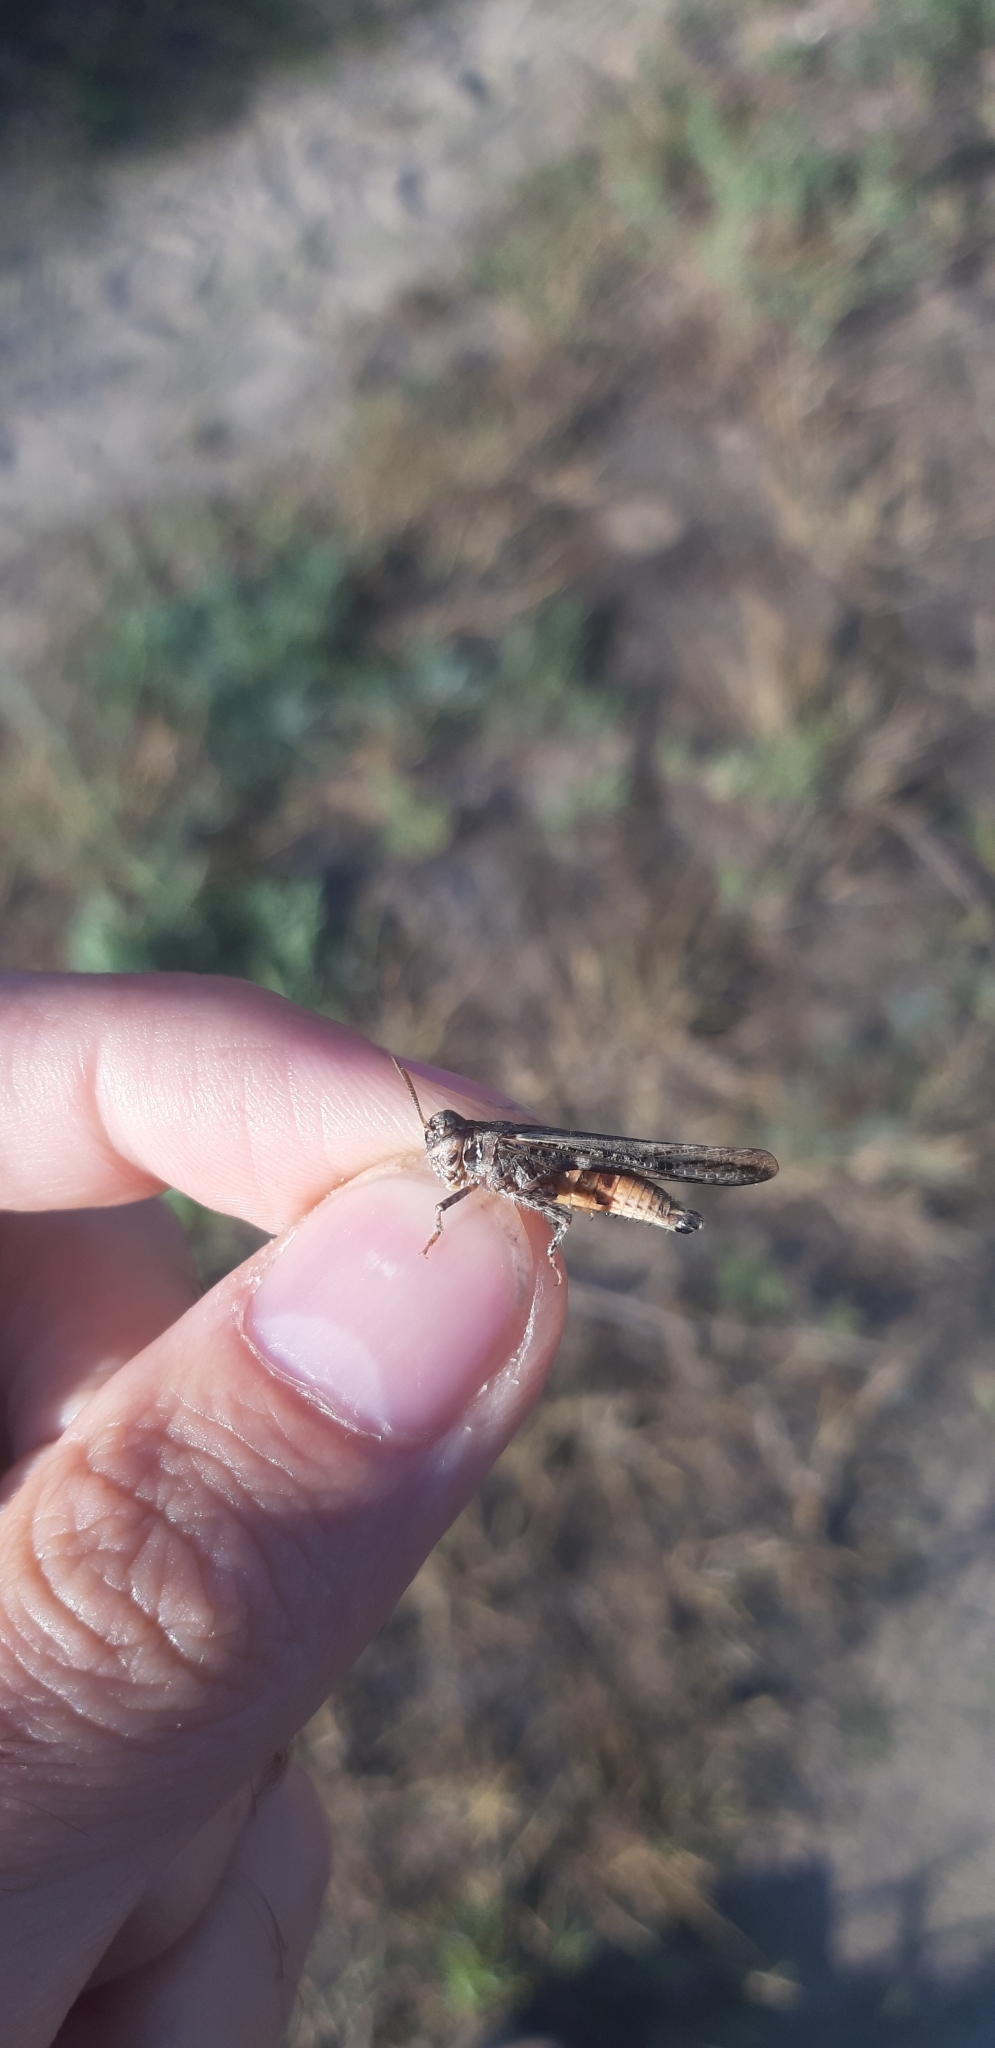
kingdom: Animalia
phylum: Arthropoda
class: Insecta
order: Orthoptera
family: Acrididae
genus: Acrotylus
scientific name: Acrotylus insubricus
